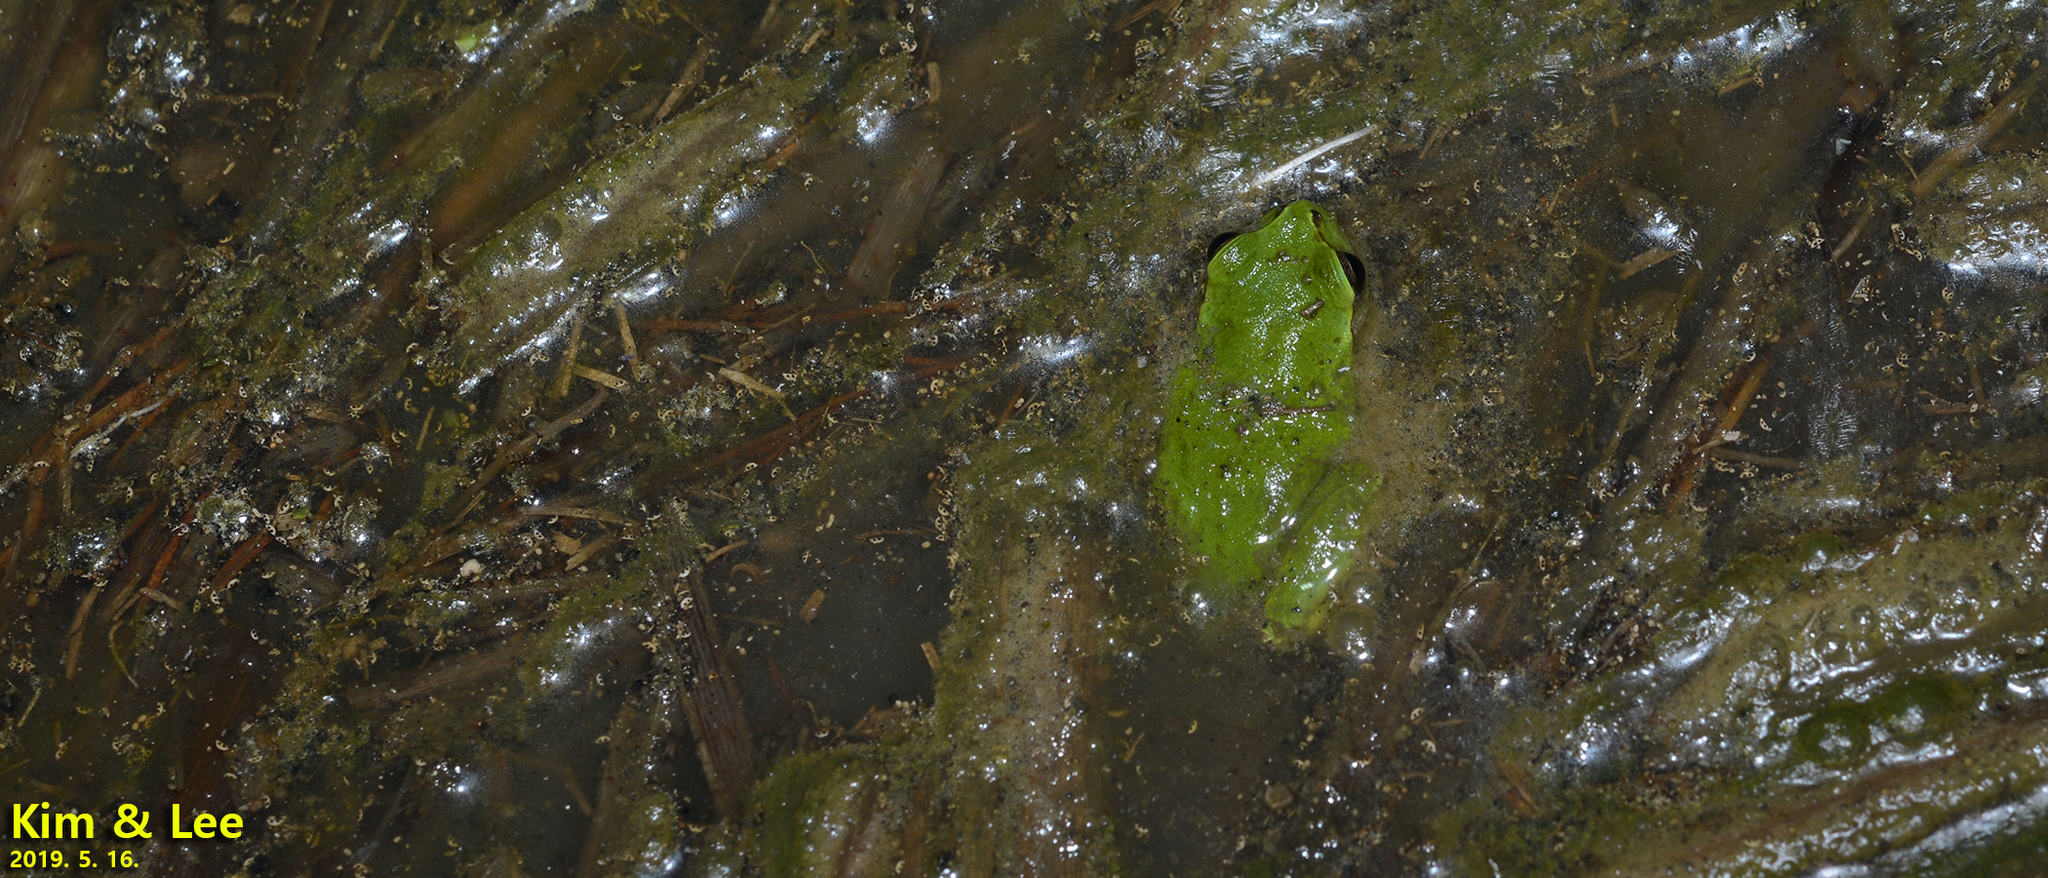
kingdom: Animalia
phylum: Chordata
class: Amphibia
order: Anura
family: Hylidae
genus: Dryophytes
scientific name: Dryophytes japonicus
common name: Japanese treefrog
